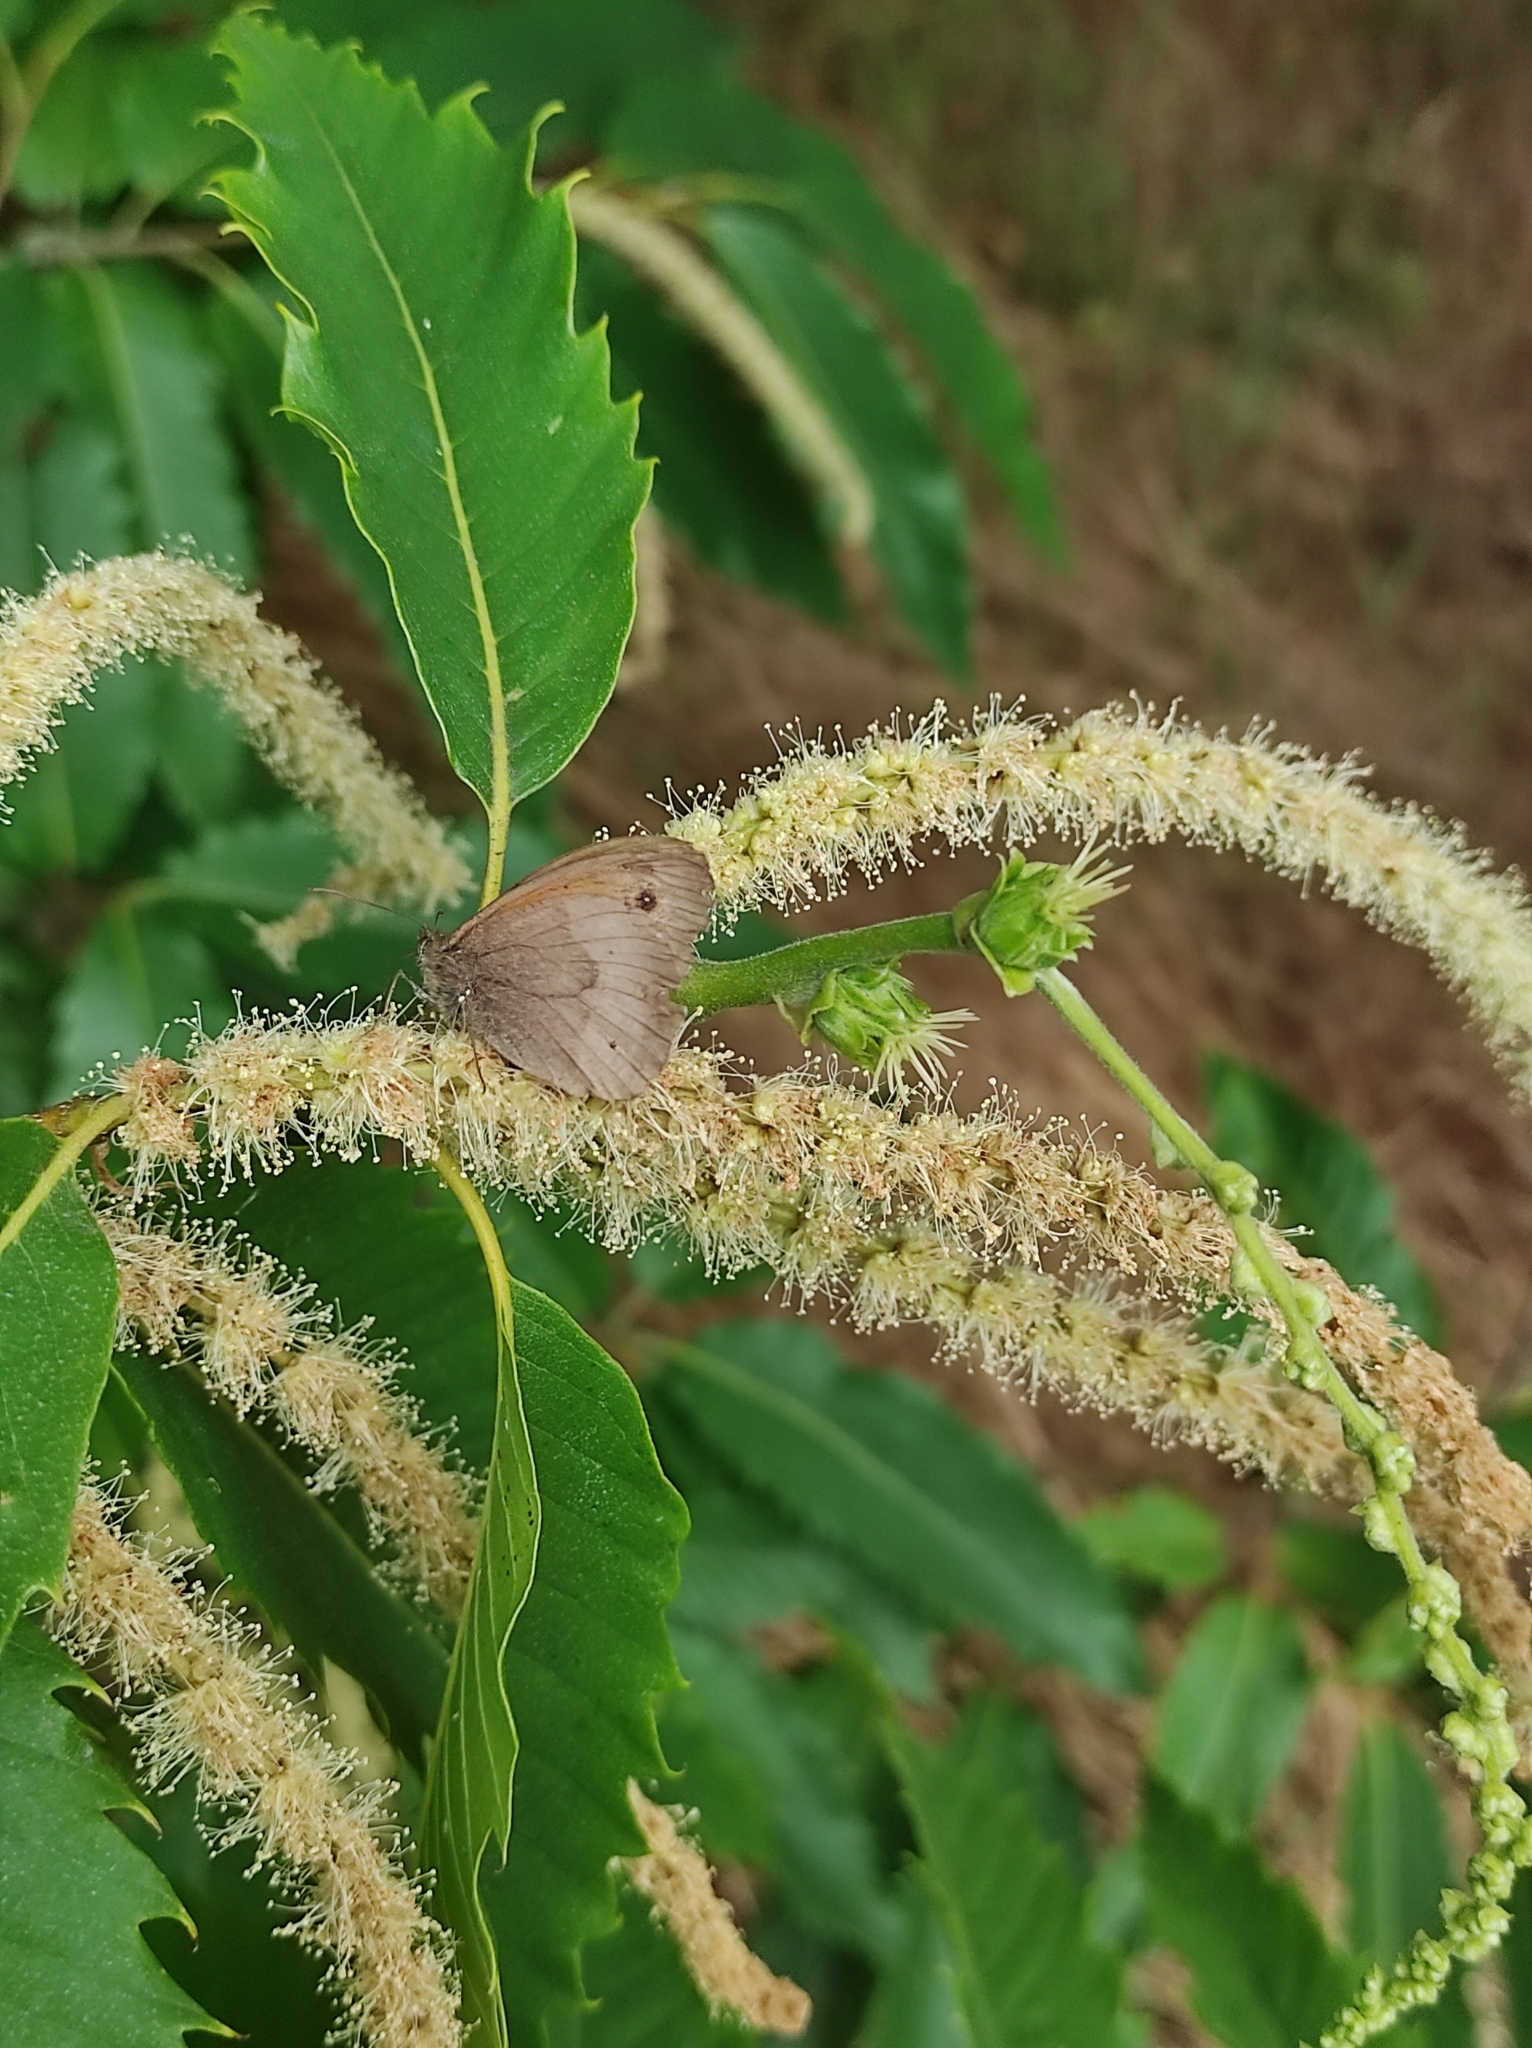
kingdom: Animalia
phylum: Arthropoda
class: Insecta
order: Lepidoptera
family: Nymphalidae
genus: Maniola
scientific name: Maniola jurtina
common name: Meadow brown
